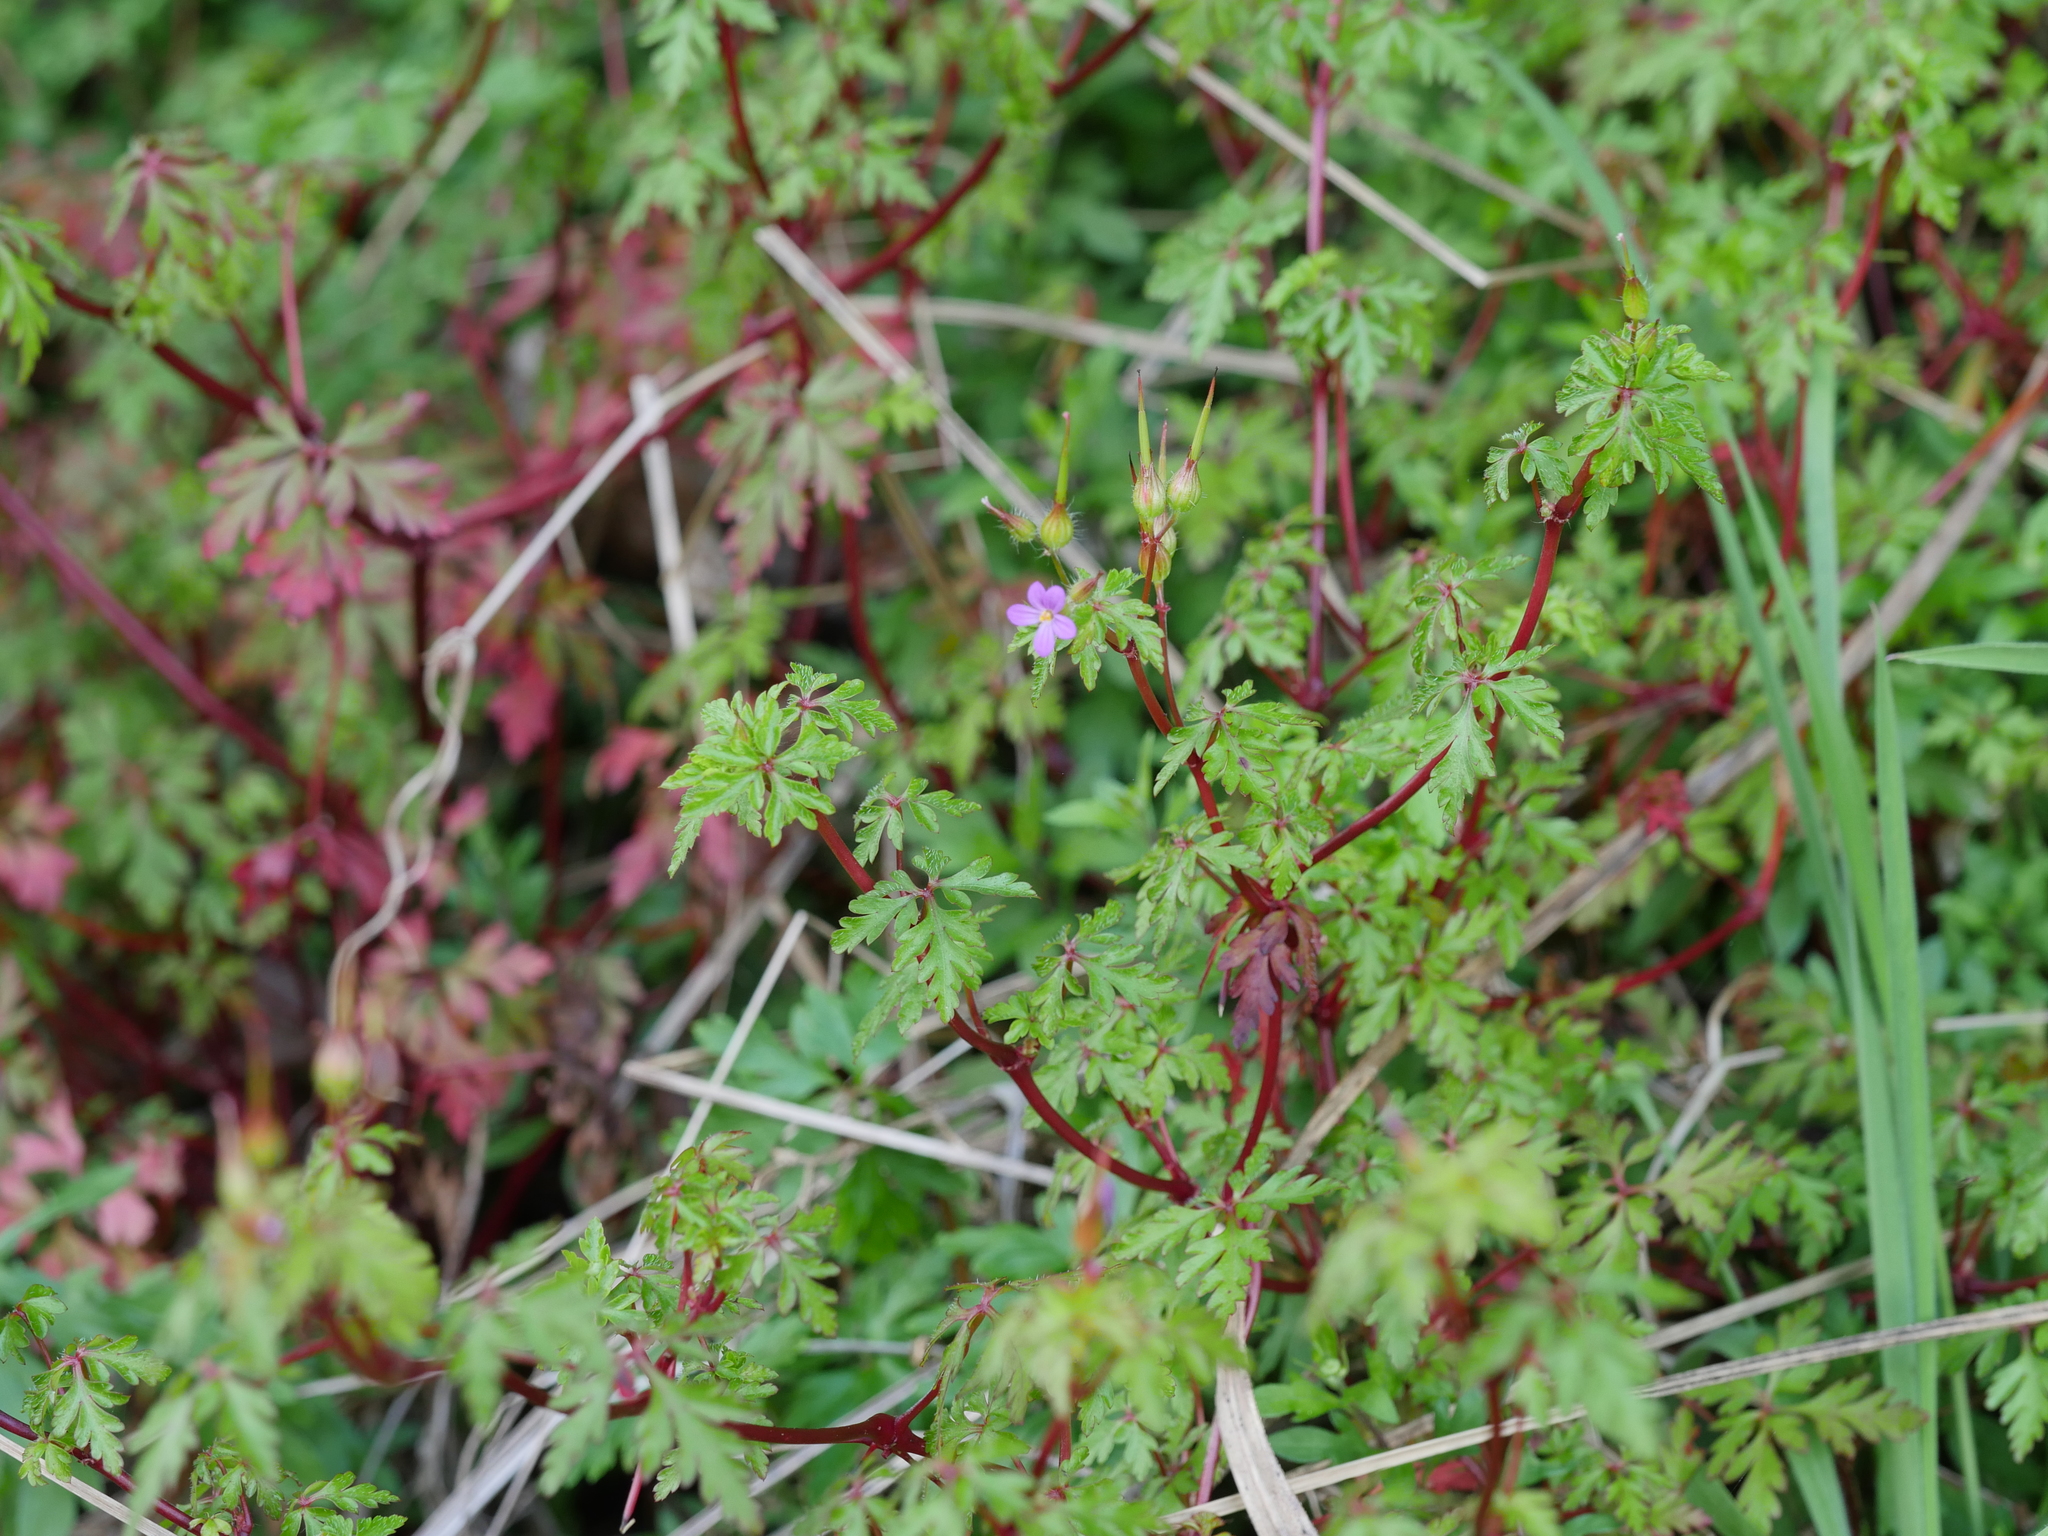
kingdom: Plantae
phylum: Tracheophyta
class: Magnoliopsida
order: Geraniales
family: Geraniaceae
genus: Geranium
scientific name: Geranium robertianum
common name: Herb-robert
